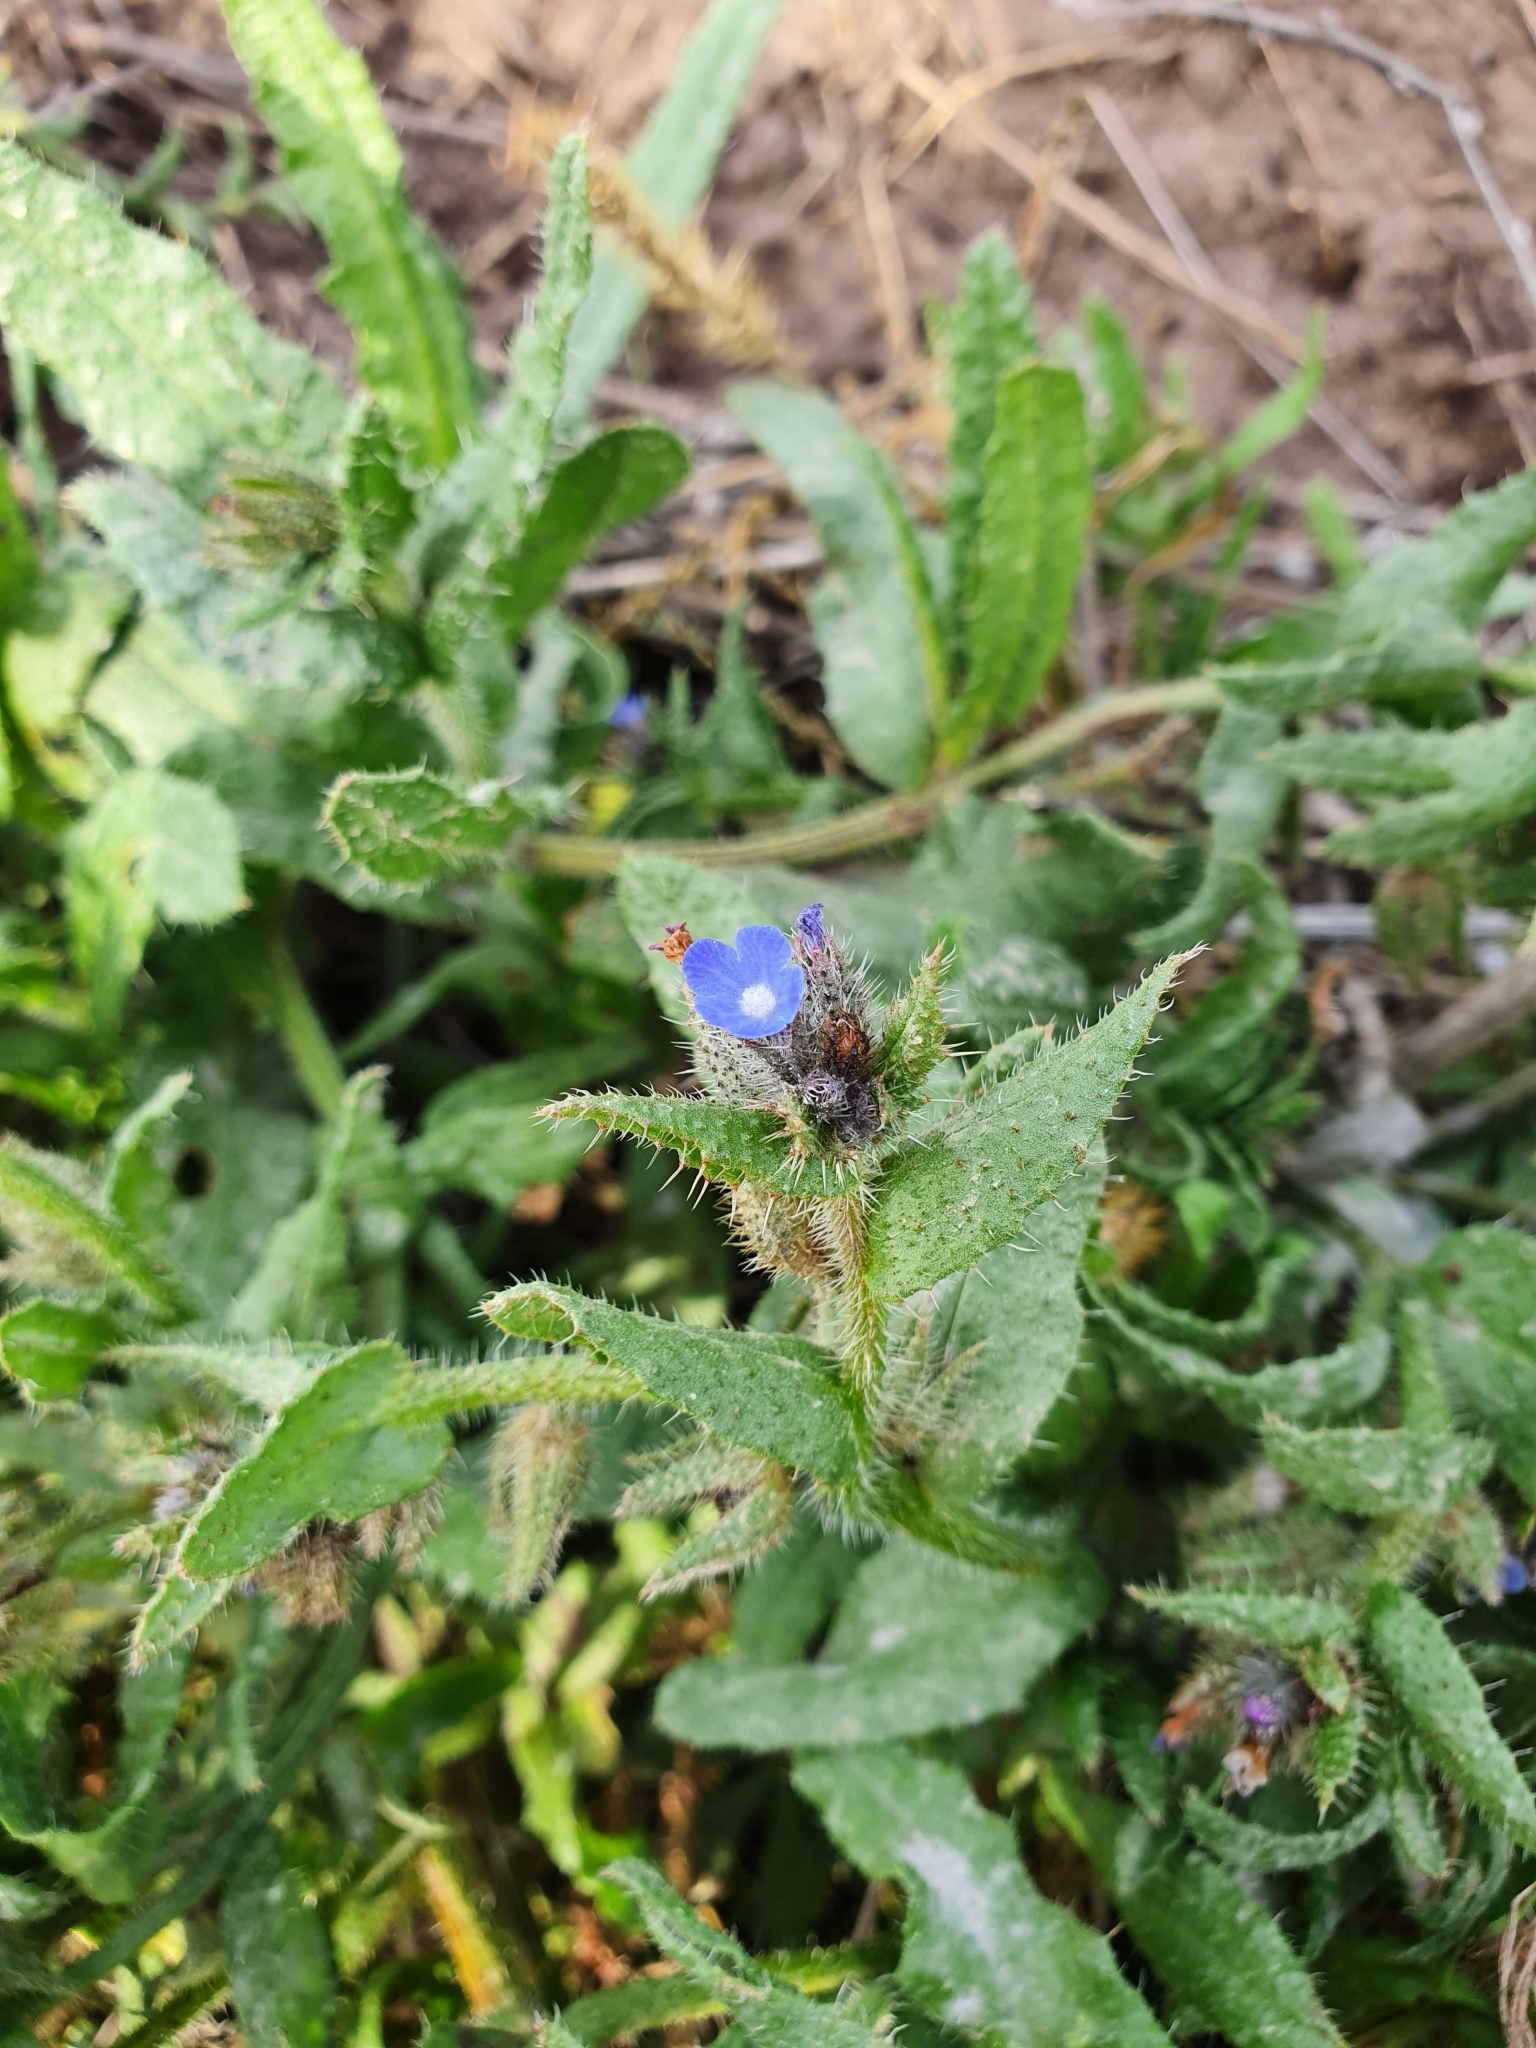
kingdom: Plantae
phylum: Tracheophyta
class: Magnoliopsida
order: Boraginales
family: Boraginaceae
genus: Lycopsis
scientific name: Lycopsis arvensis
